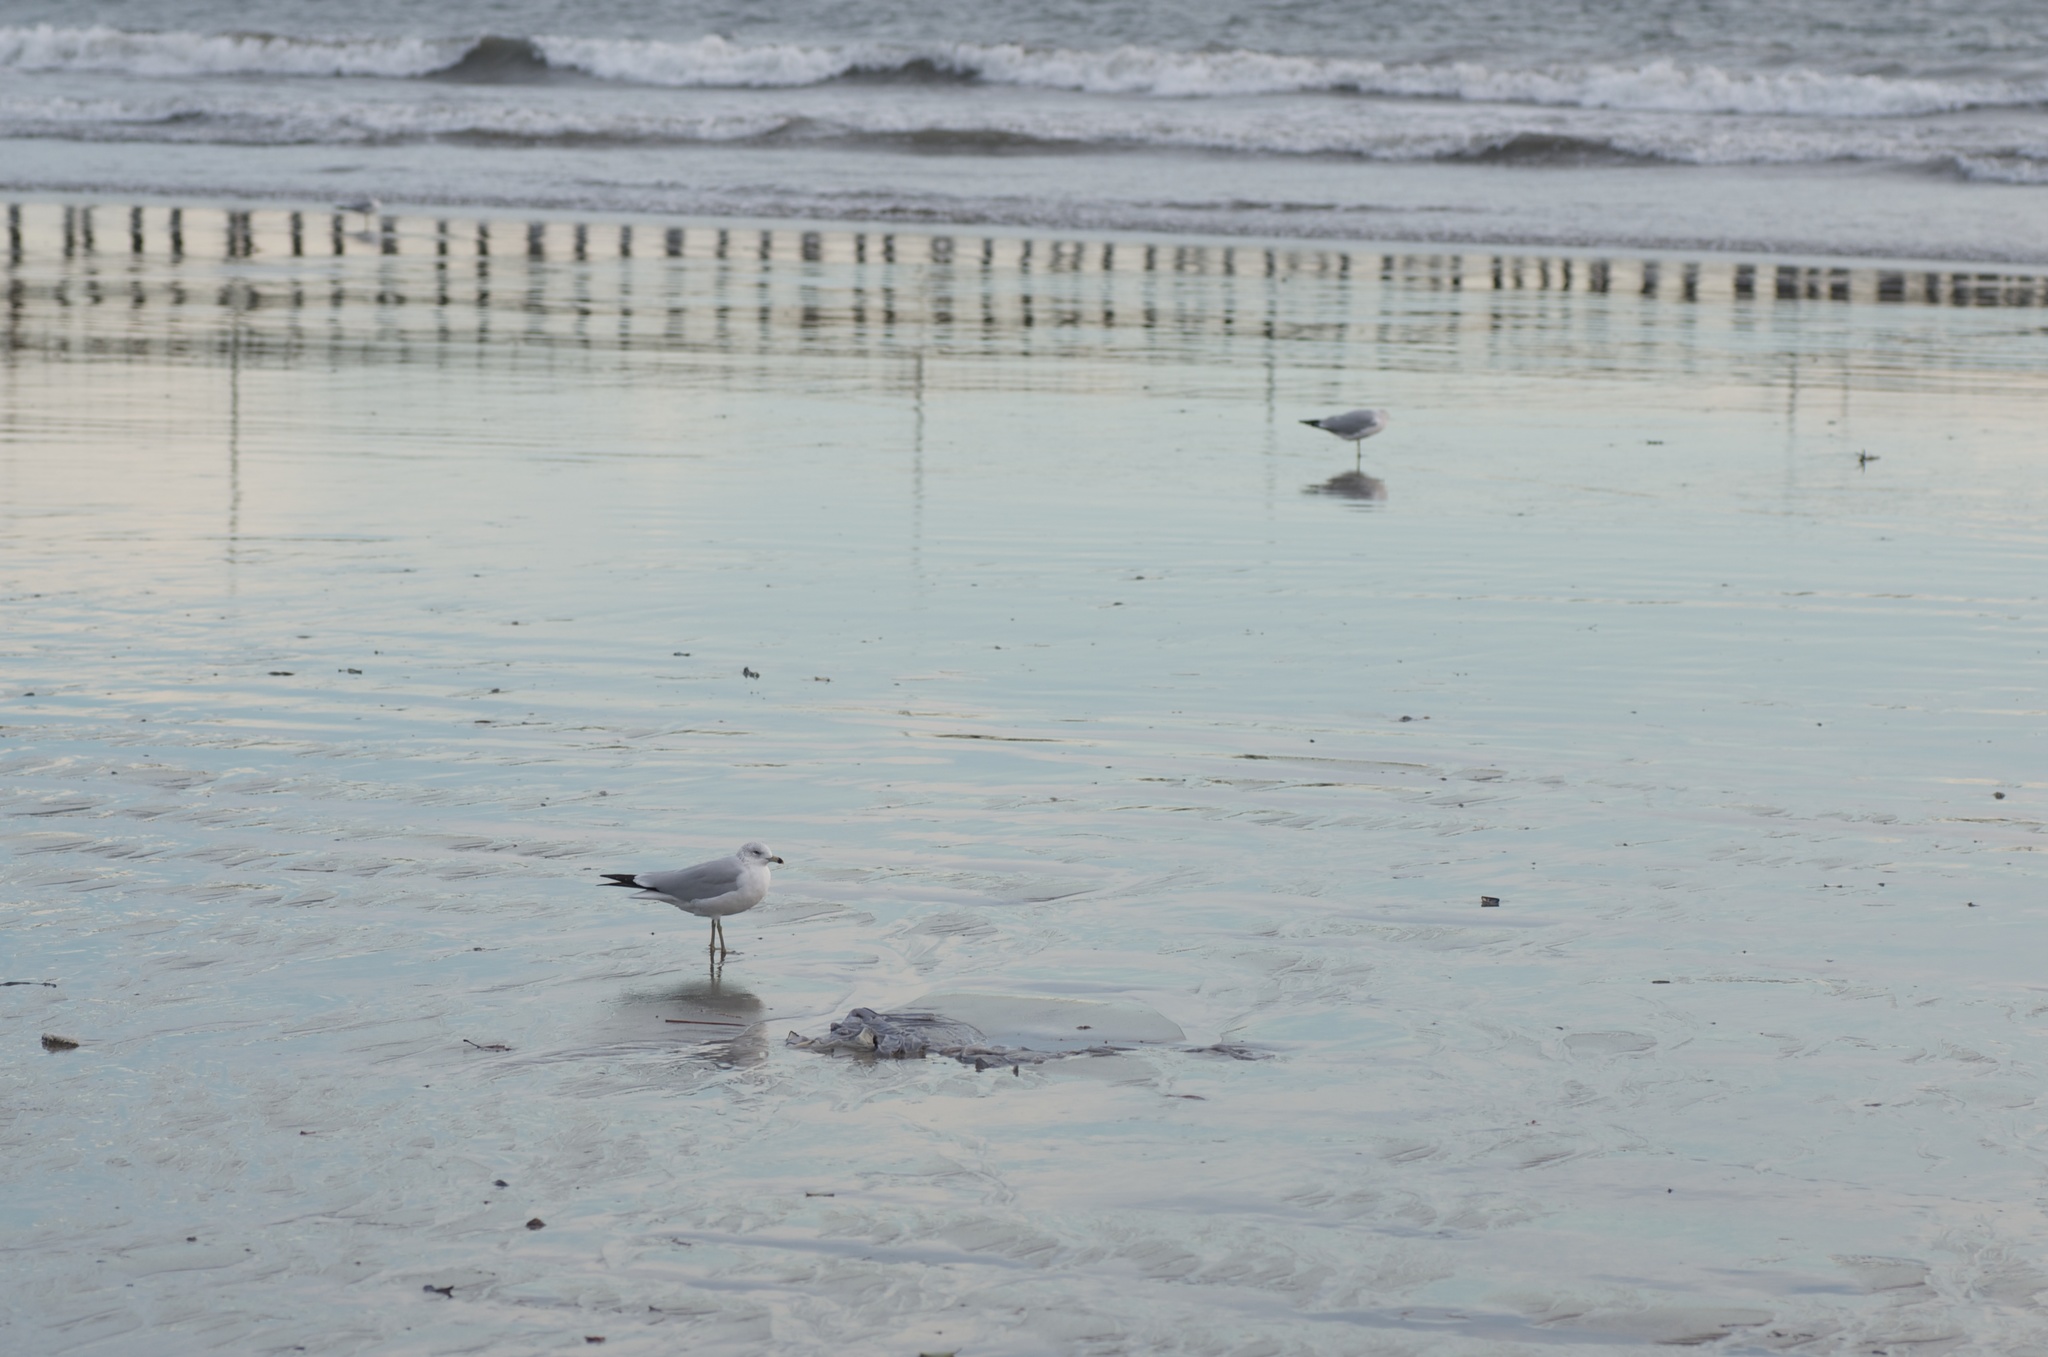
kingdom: Animalia
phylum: Chordata
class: Aves
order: Charadriiformes
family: Laridae
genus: Larus
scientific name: Larus delawarensis
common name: Ring-billed gull
